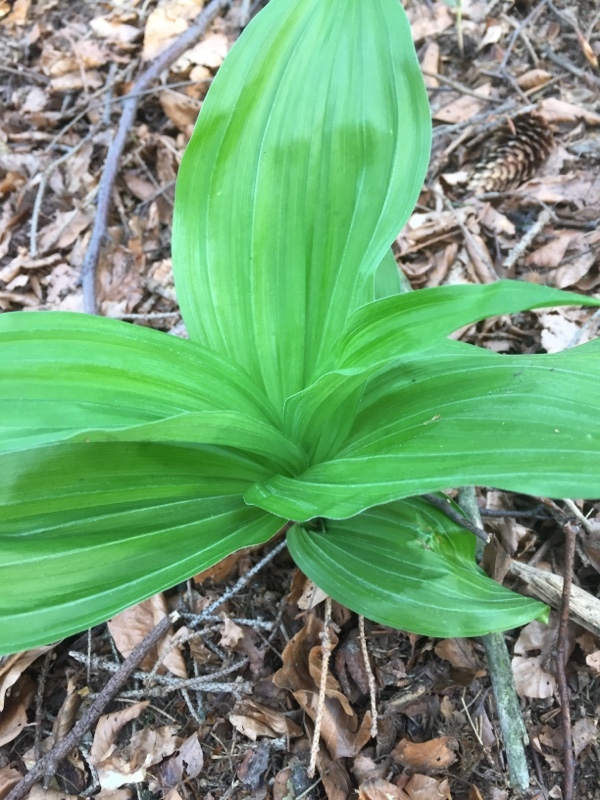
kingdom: Plantae
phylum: Tracheophyta
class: Liliopsida
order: Liliales
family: Melanthiaceae
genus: Veratrum
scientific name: Veratrum album
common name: White veratrum
